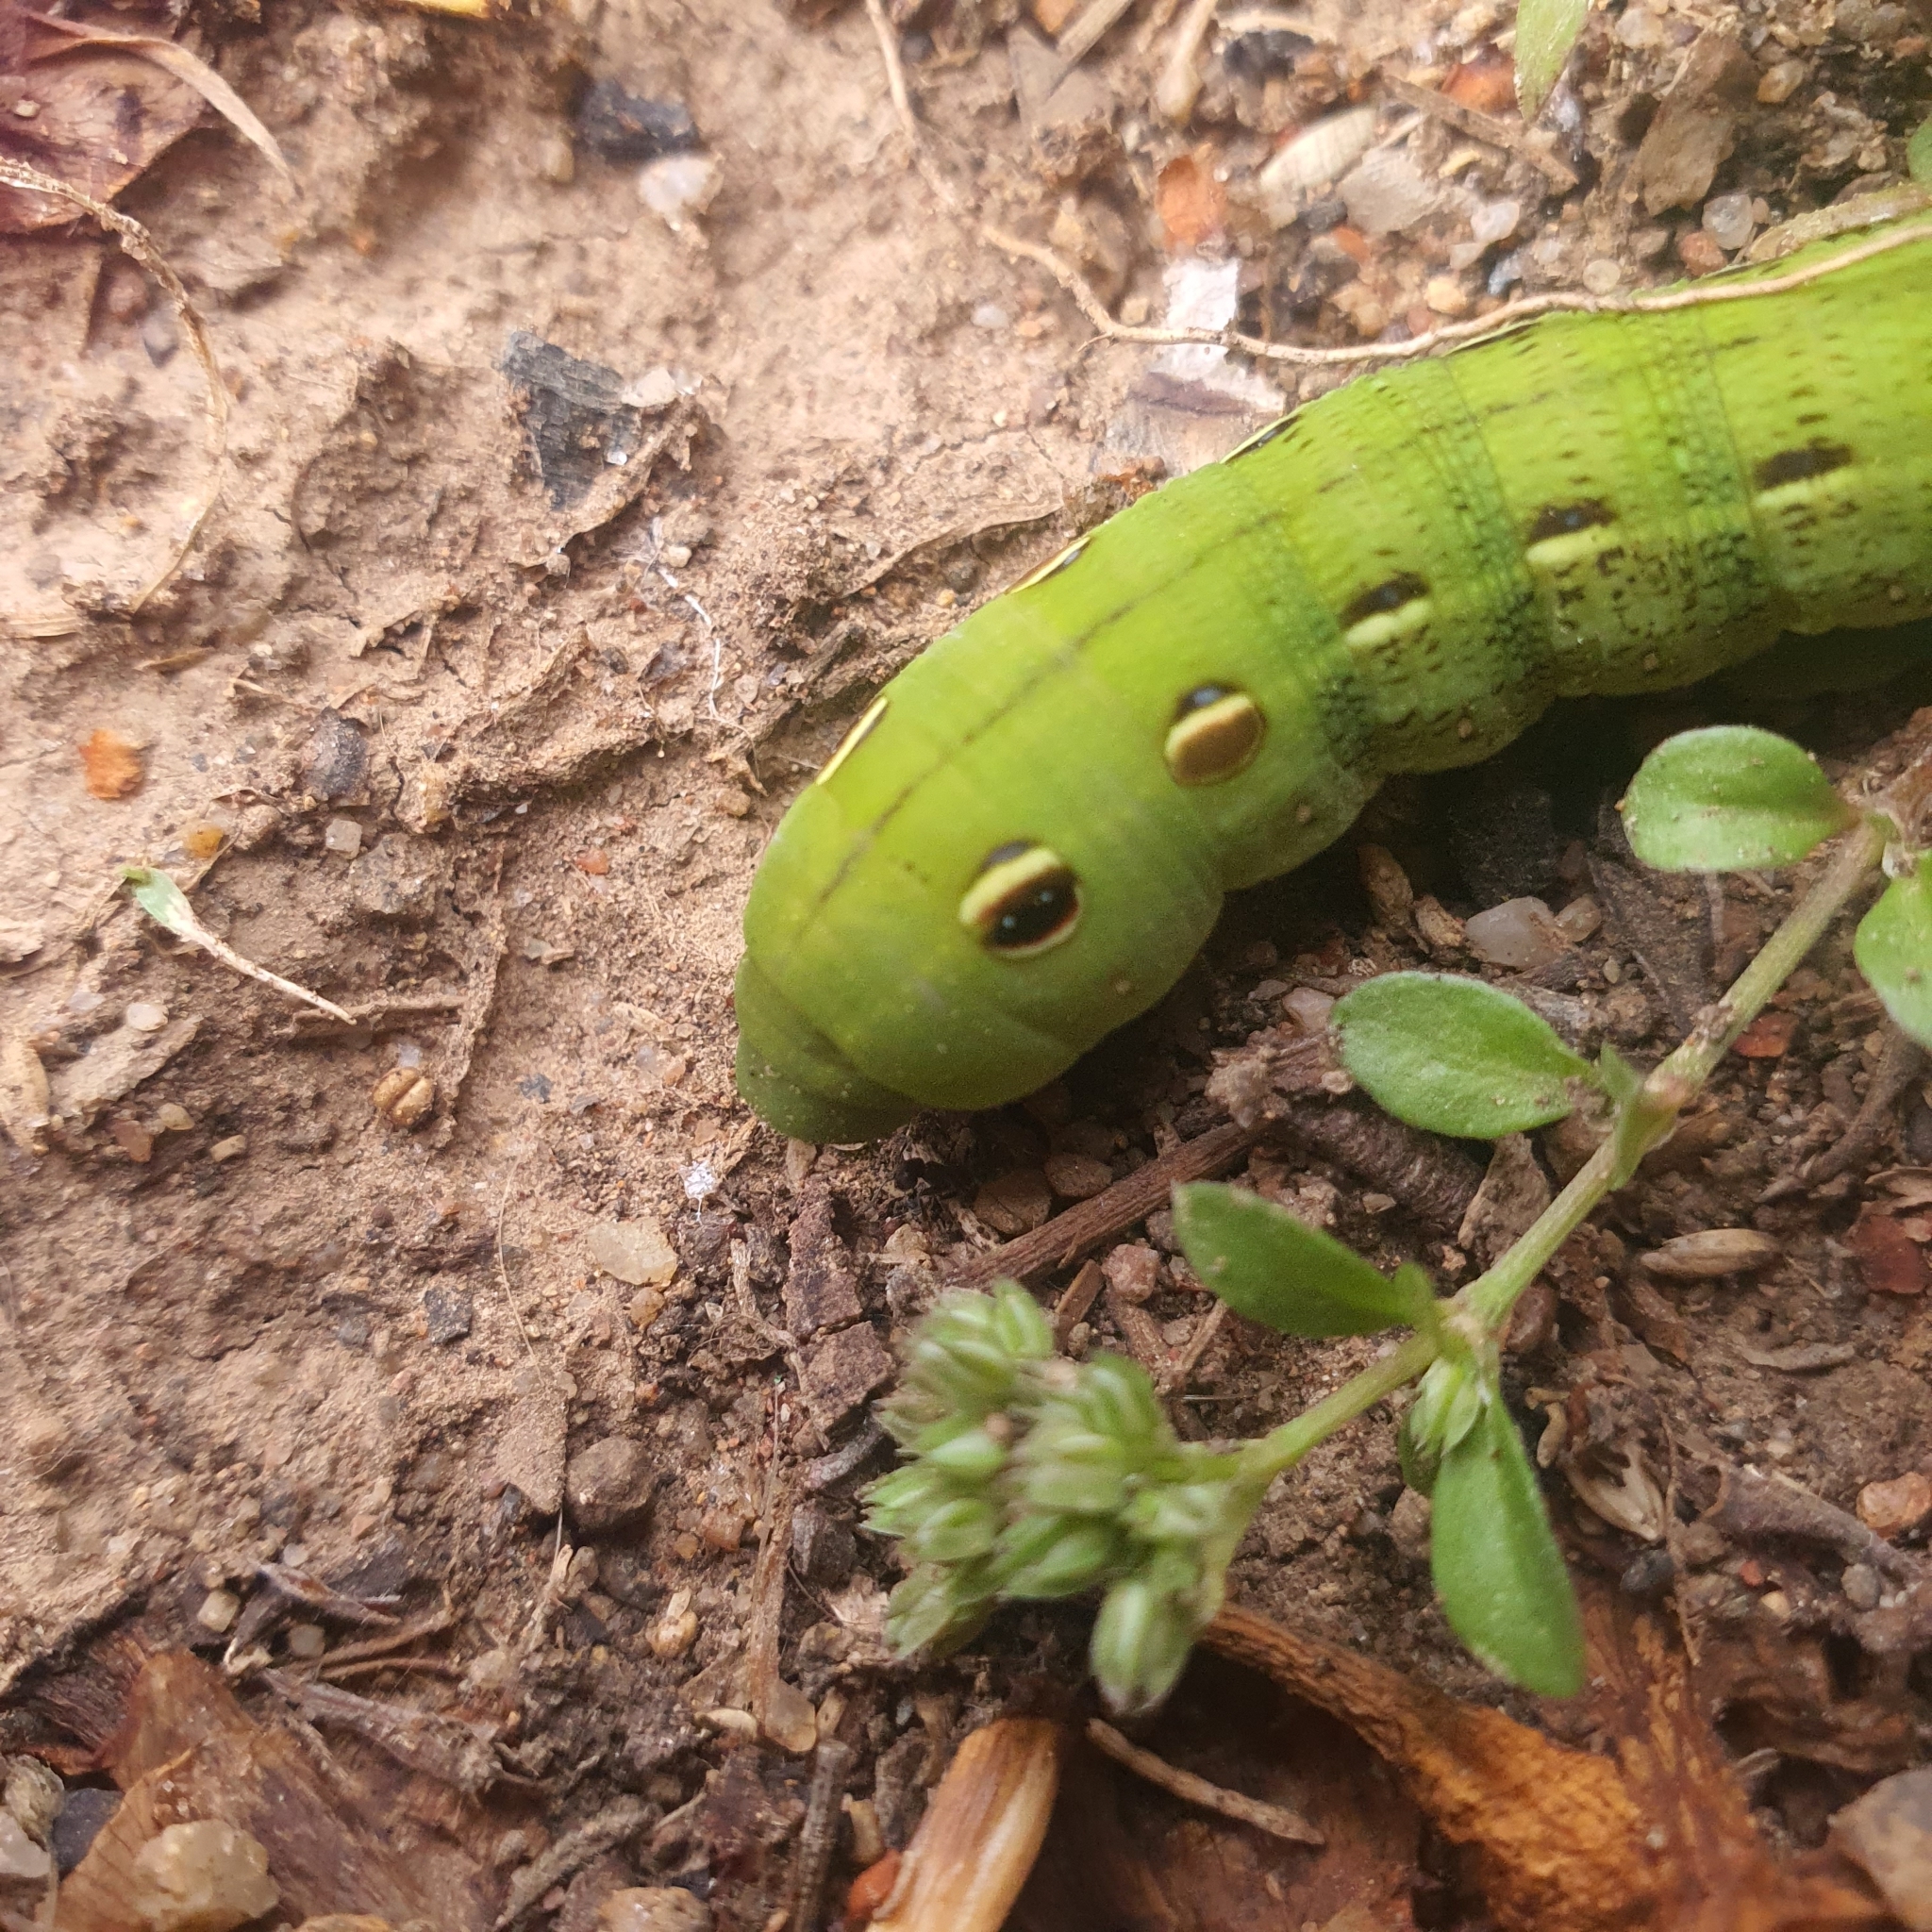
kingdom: Animalia
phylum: Arthropoda
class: Insecta
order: Lepidoptera
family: Sphingidae
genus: Hippotion
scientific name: Hippotion scrofa
